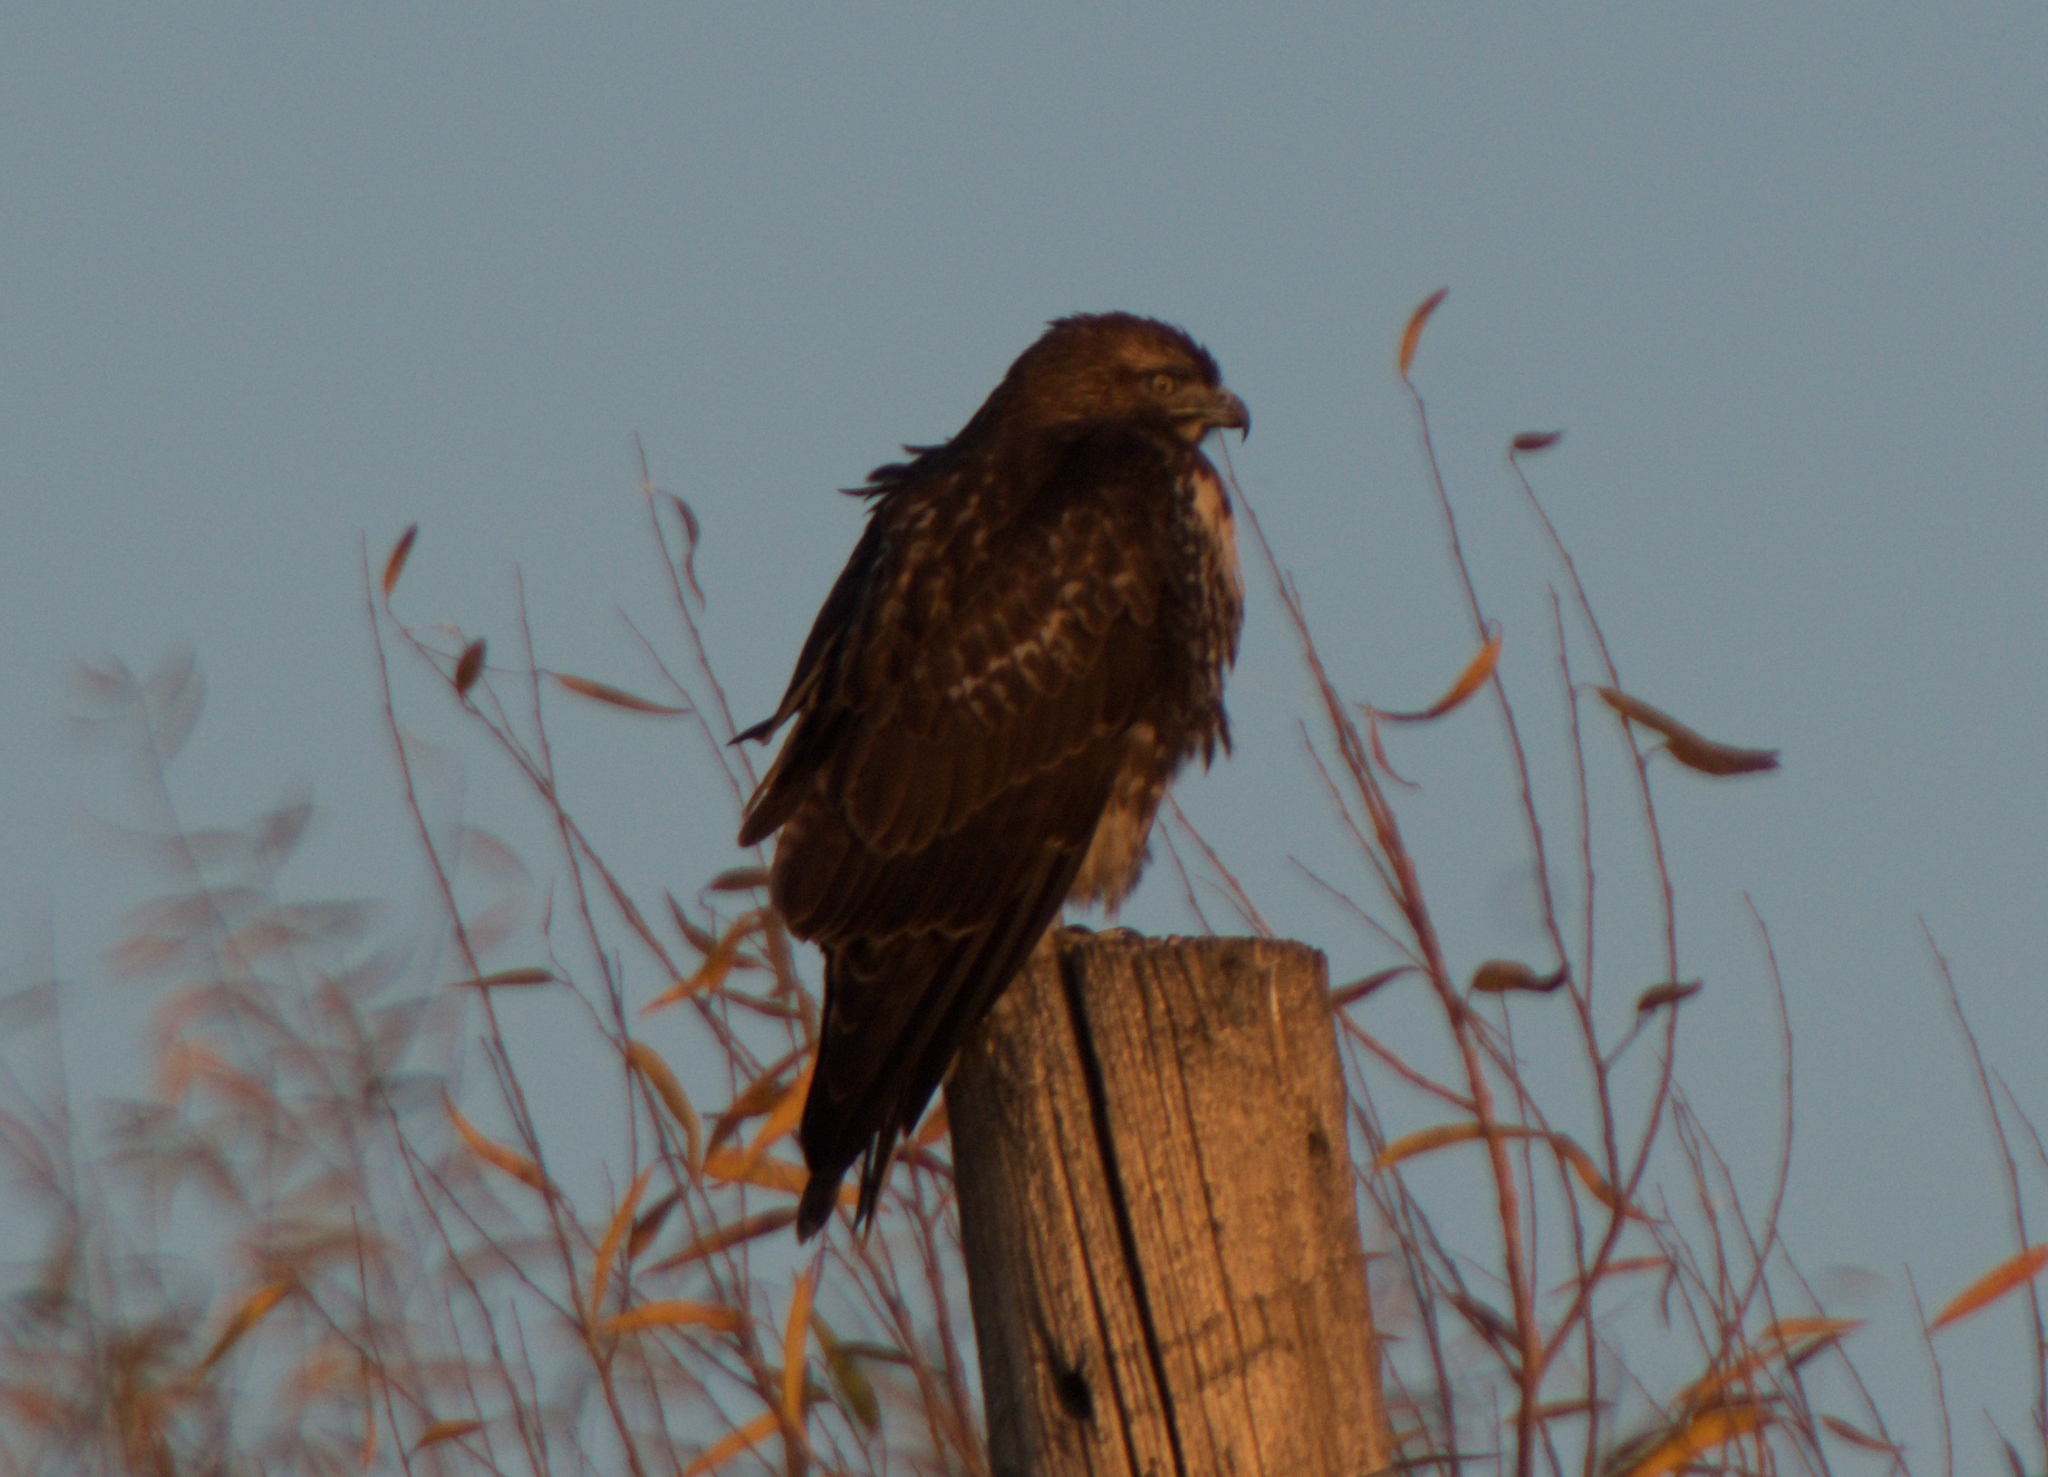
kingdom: Animalia
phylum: Chordata
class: Aves
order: Accipitriformes
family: Accipitridae
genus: Buteo
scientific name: Buteo jamaicensis
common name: Red-tailed hawk
